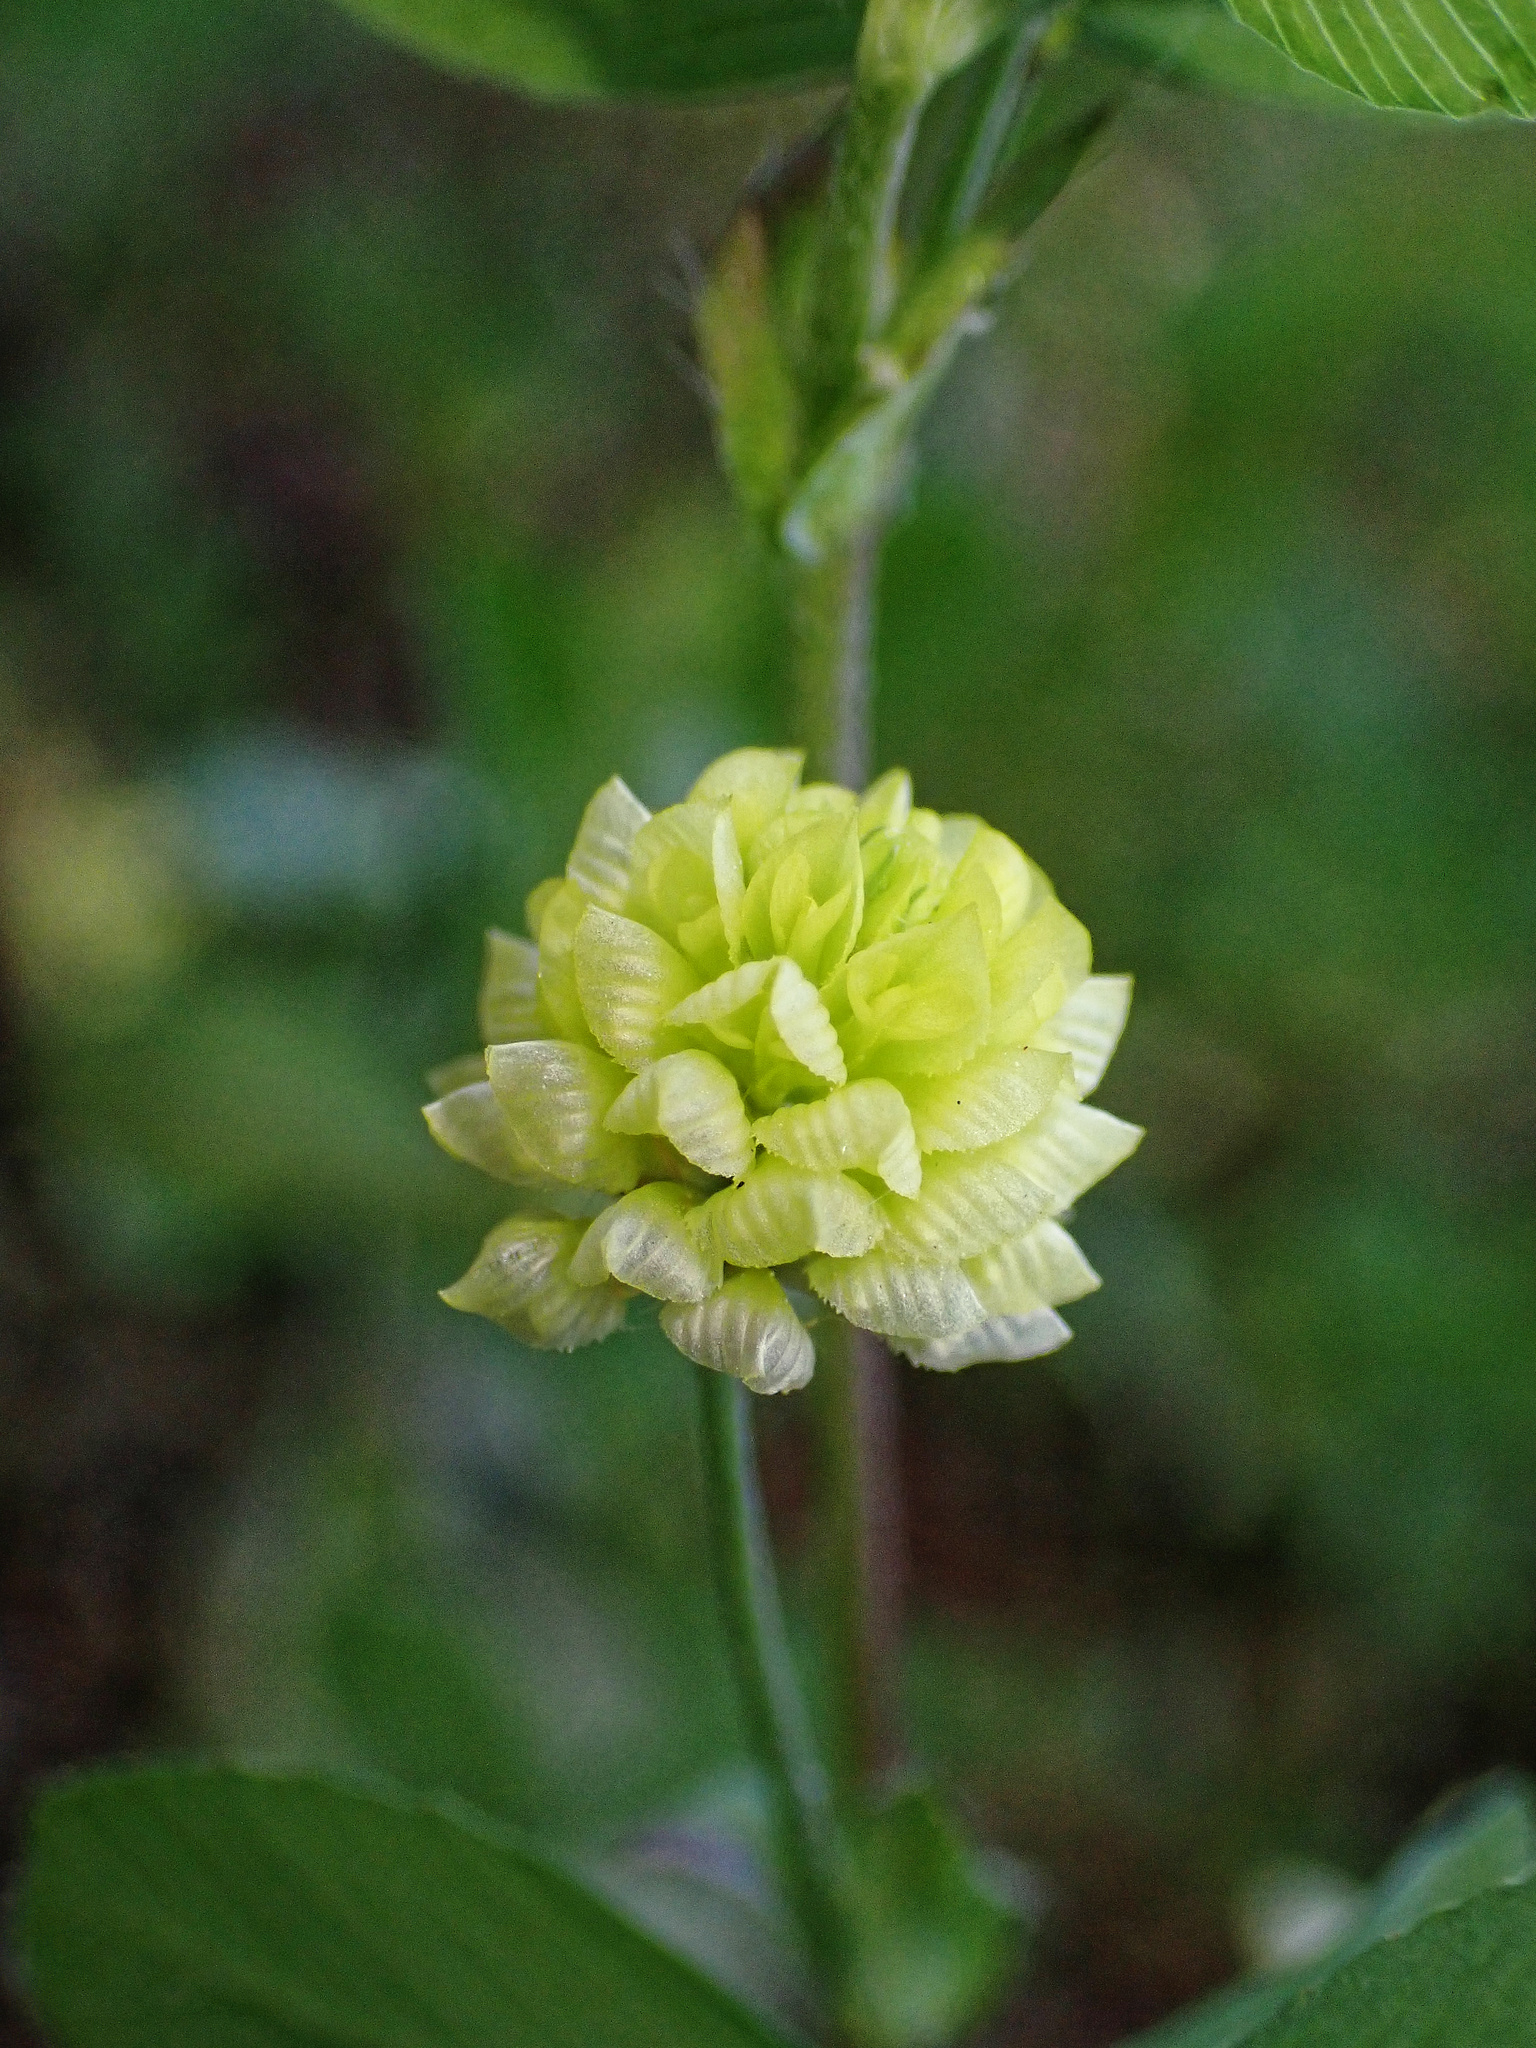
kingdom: Plantae
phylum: Tracheophyta
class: Magnoliopsida
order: Fabales
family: Fabaceae
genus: Trifolium
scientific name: Trifolium campestre
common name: Field clover
